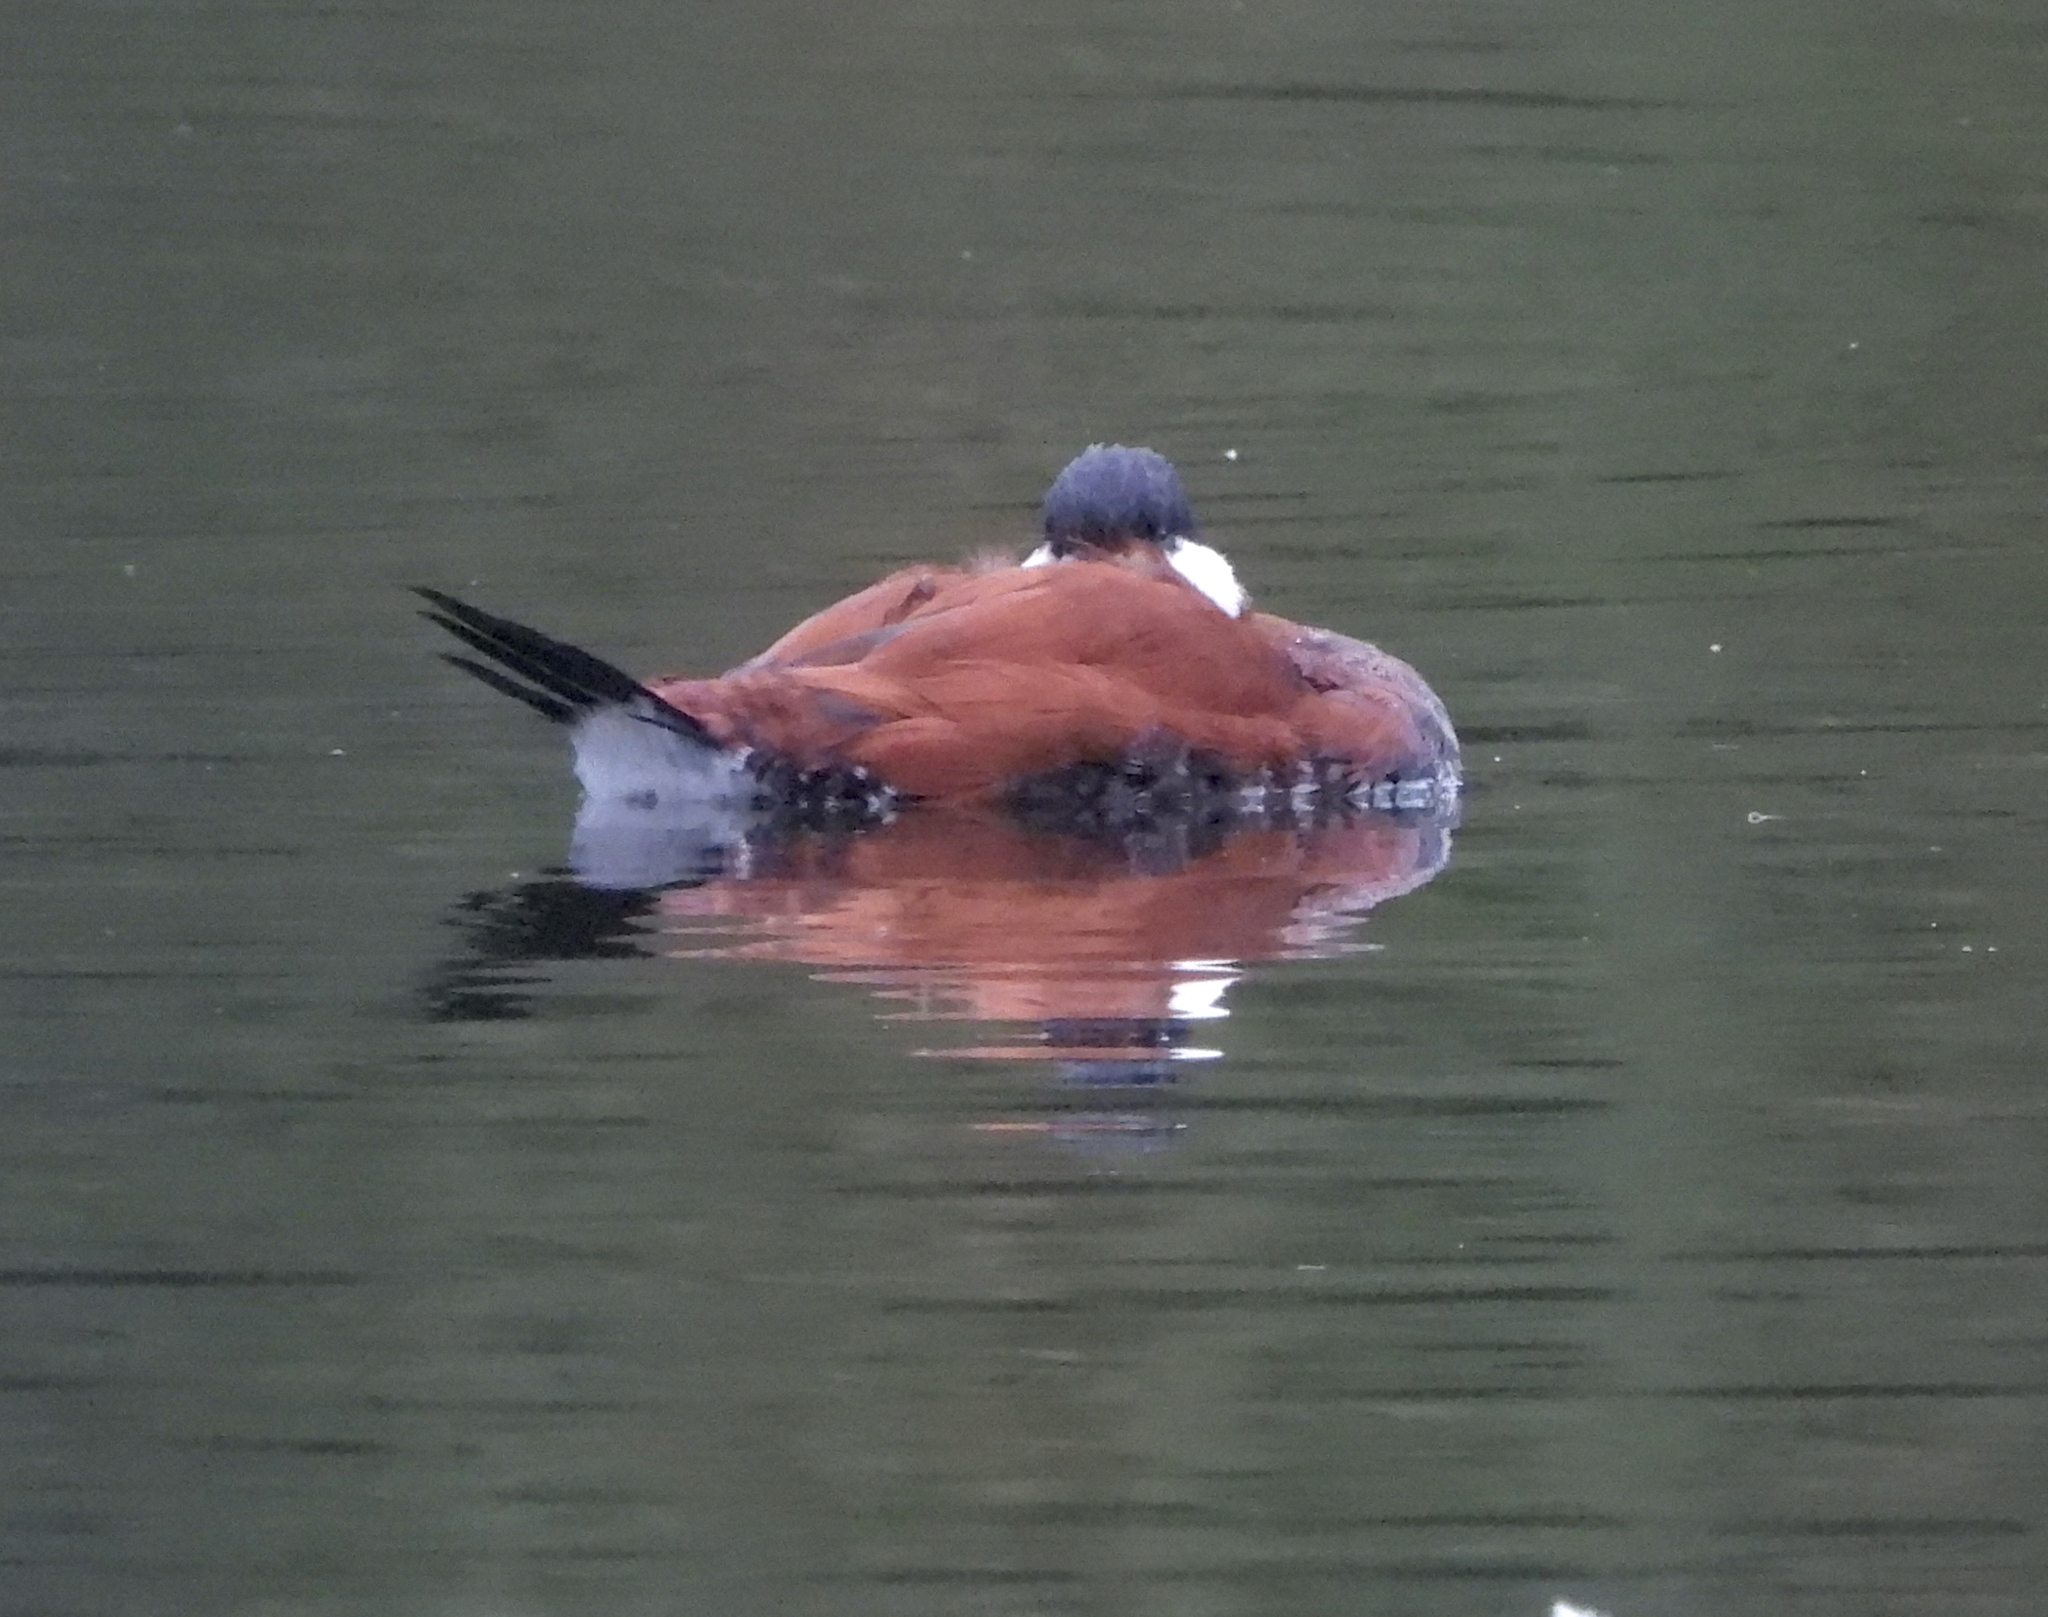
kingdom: Animalia
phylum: Chordata
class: Aves
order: Anseriformes
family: Anatidae
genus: Oxyura
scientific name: Oxyura jamaicensis
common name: Ruddy duck
